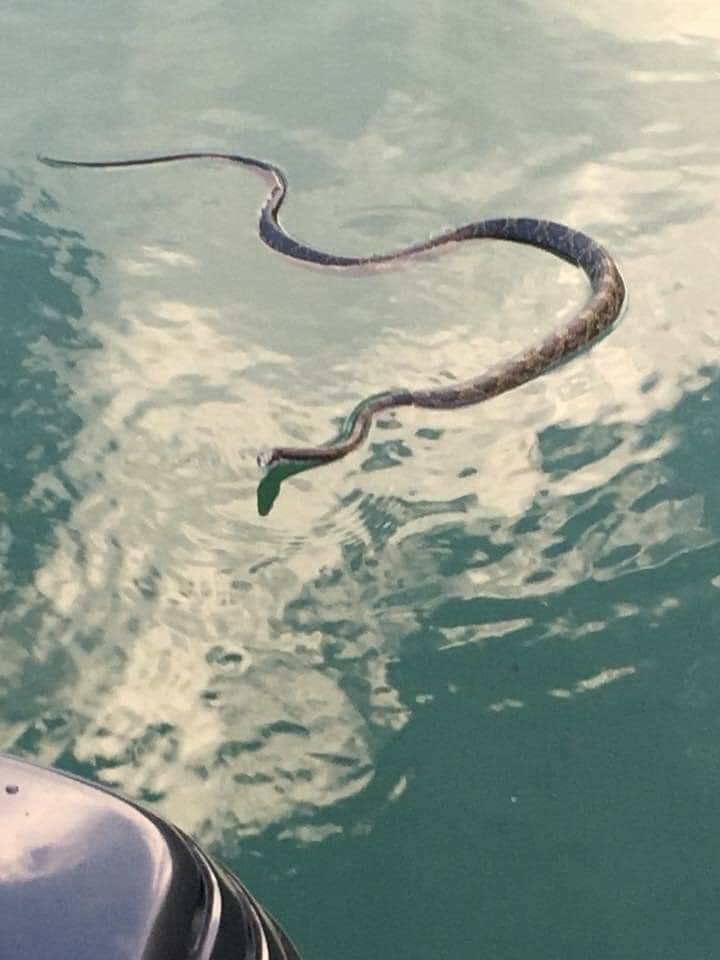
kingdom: Animalia
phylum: Chordata
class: Squamata
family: Colubridae
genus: Pantherophis
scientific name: Pantherophis spiloides
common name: Gray rat snake
